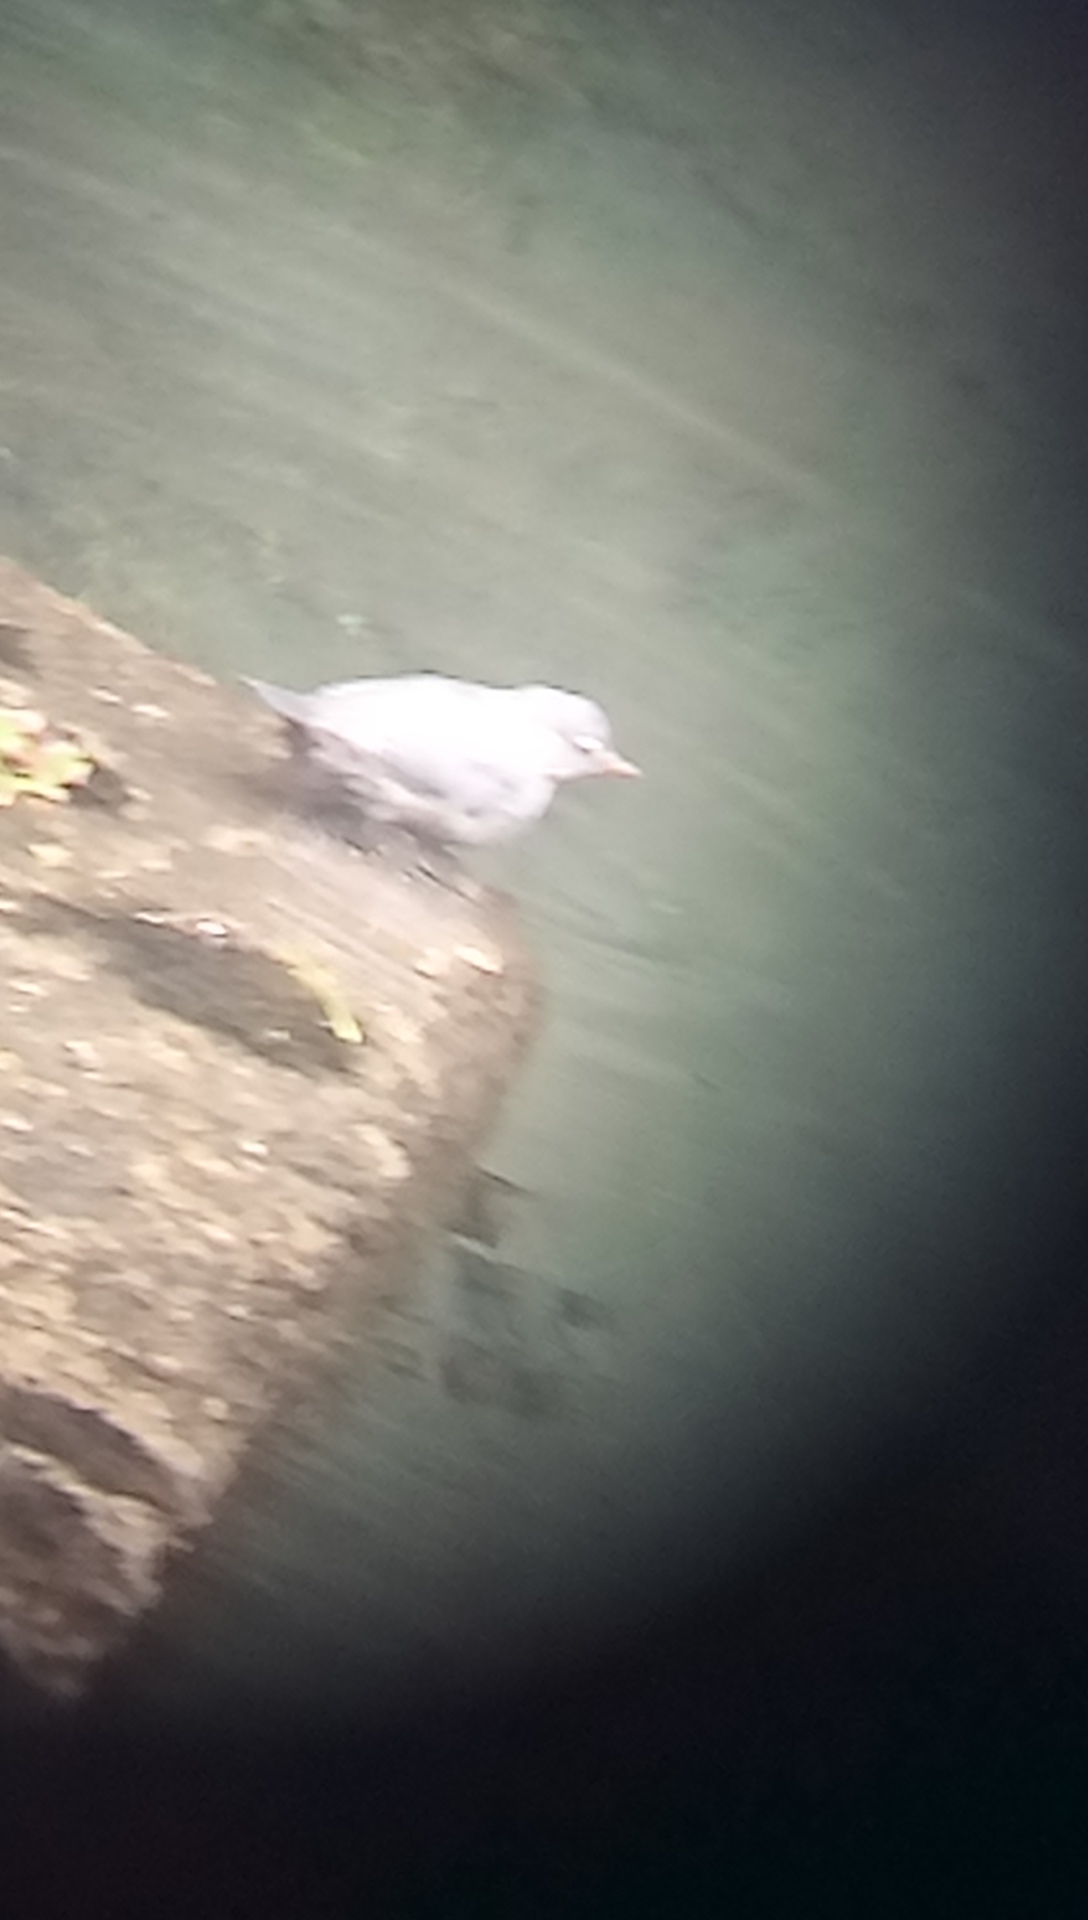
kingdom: Animalia
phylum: Chordata
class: Aves
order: Passeriformes
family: Cinclidae
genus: Cinclus
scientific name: Cinclus mexicanus
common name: American dipper
